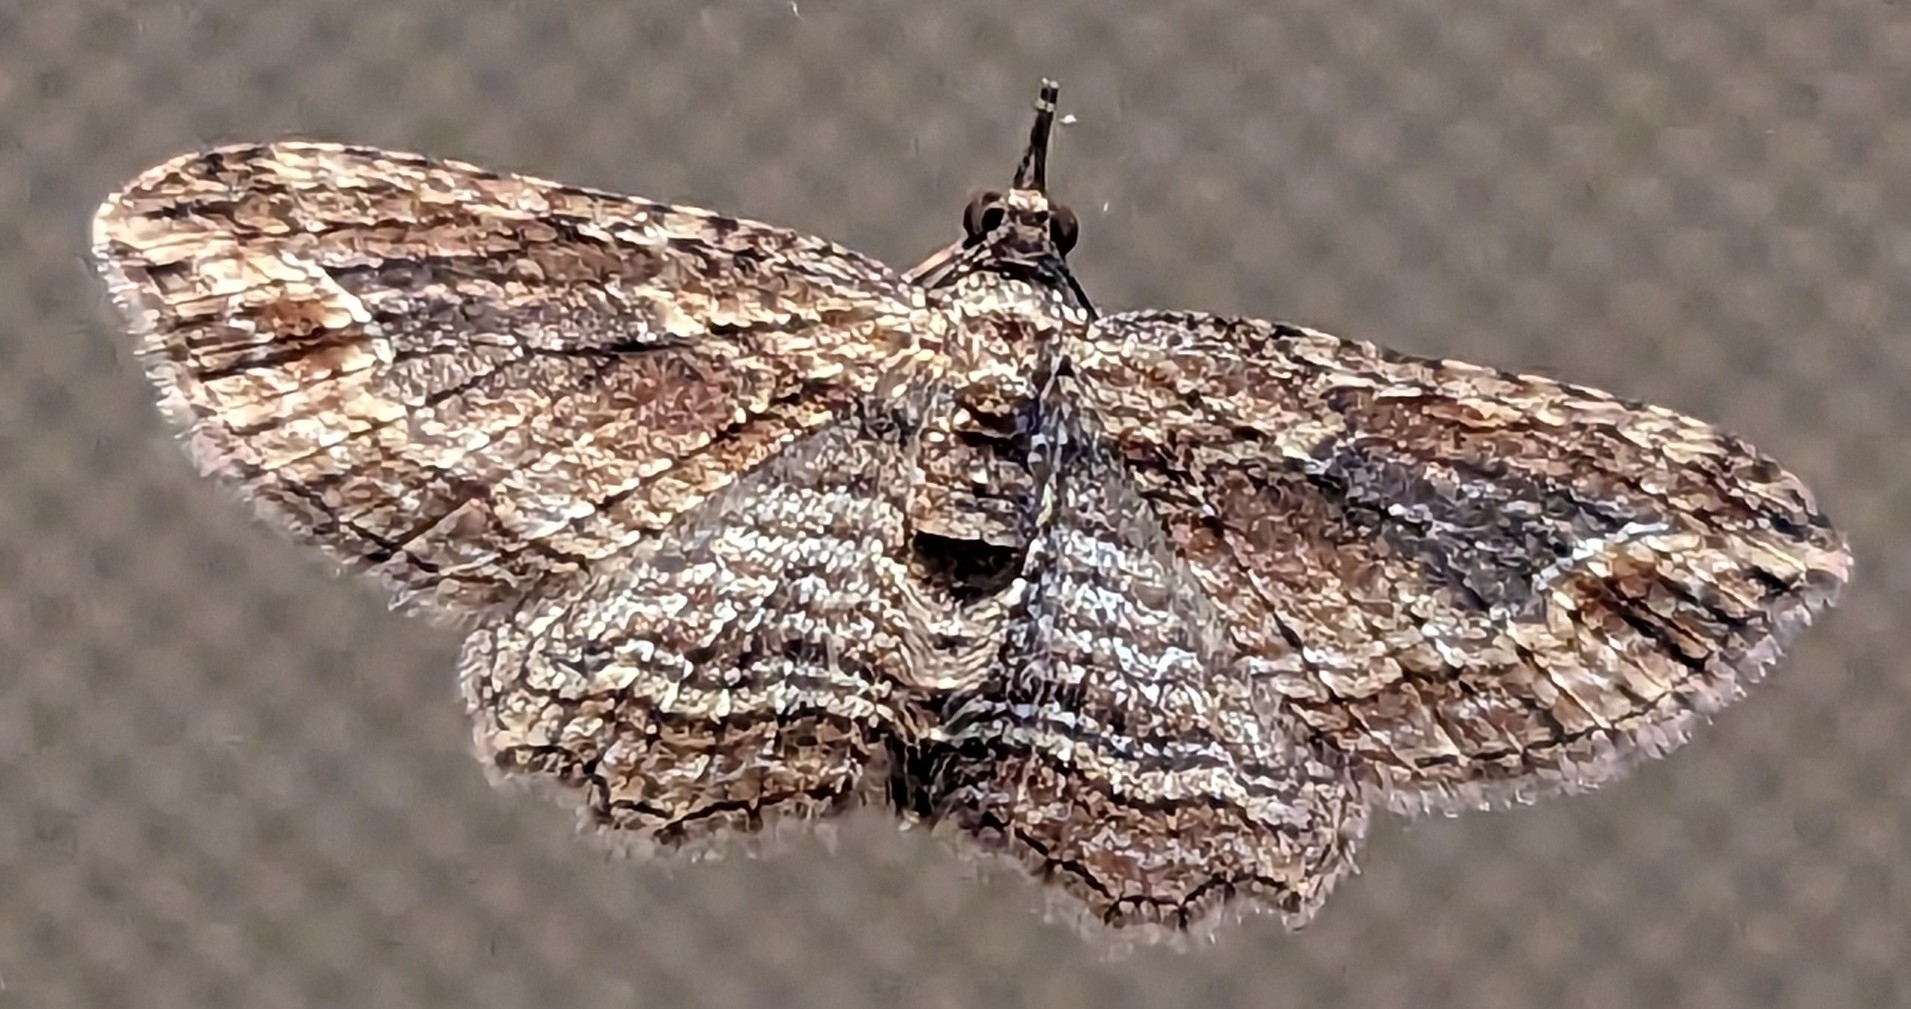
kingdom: Animalia
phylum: Arthropoda
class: Insecta
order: Lepidoptera
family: Geometridae
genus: Chloroclystis
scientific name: Chloroclystis filata
